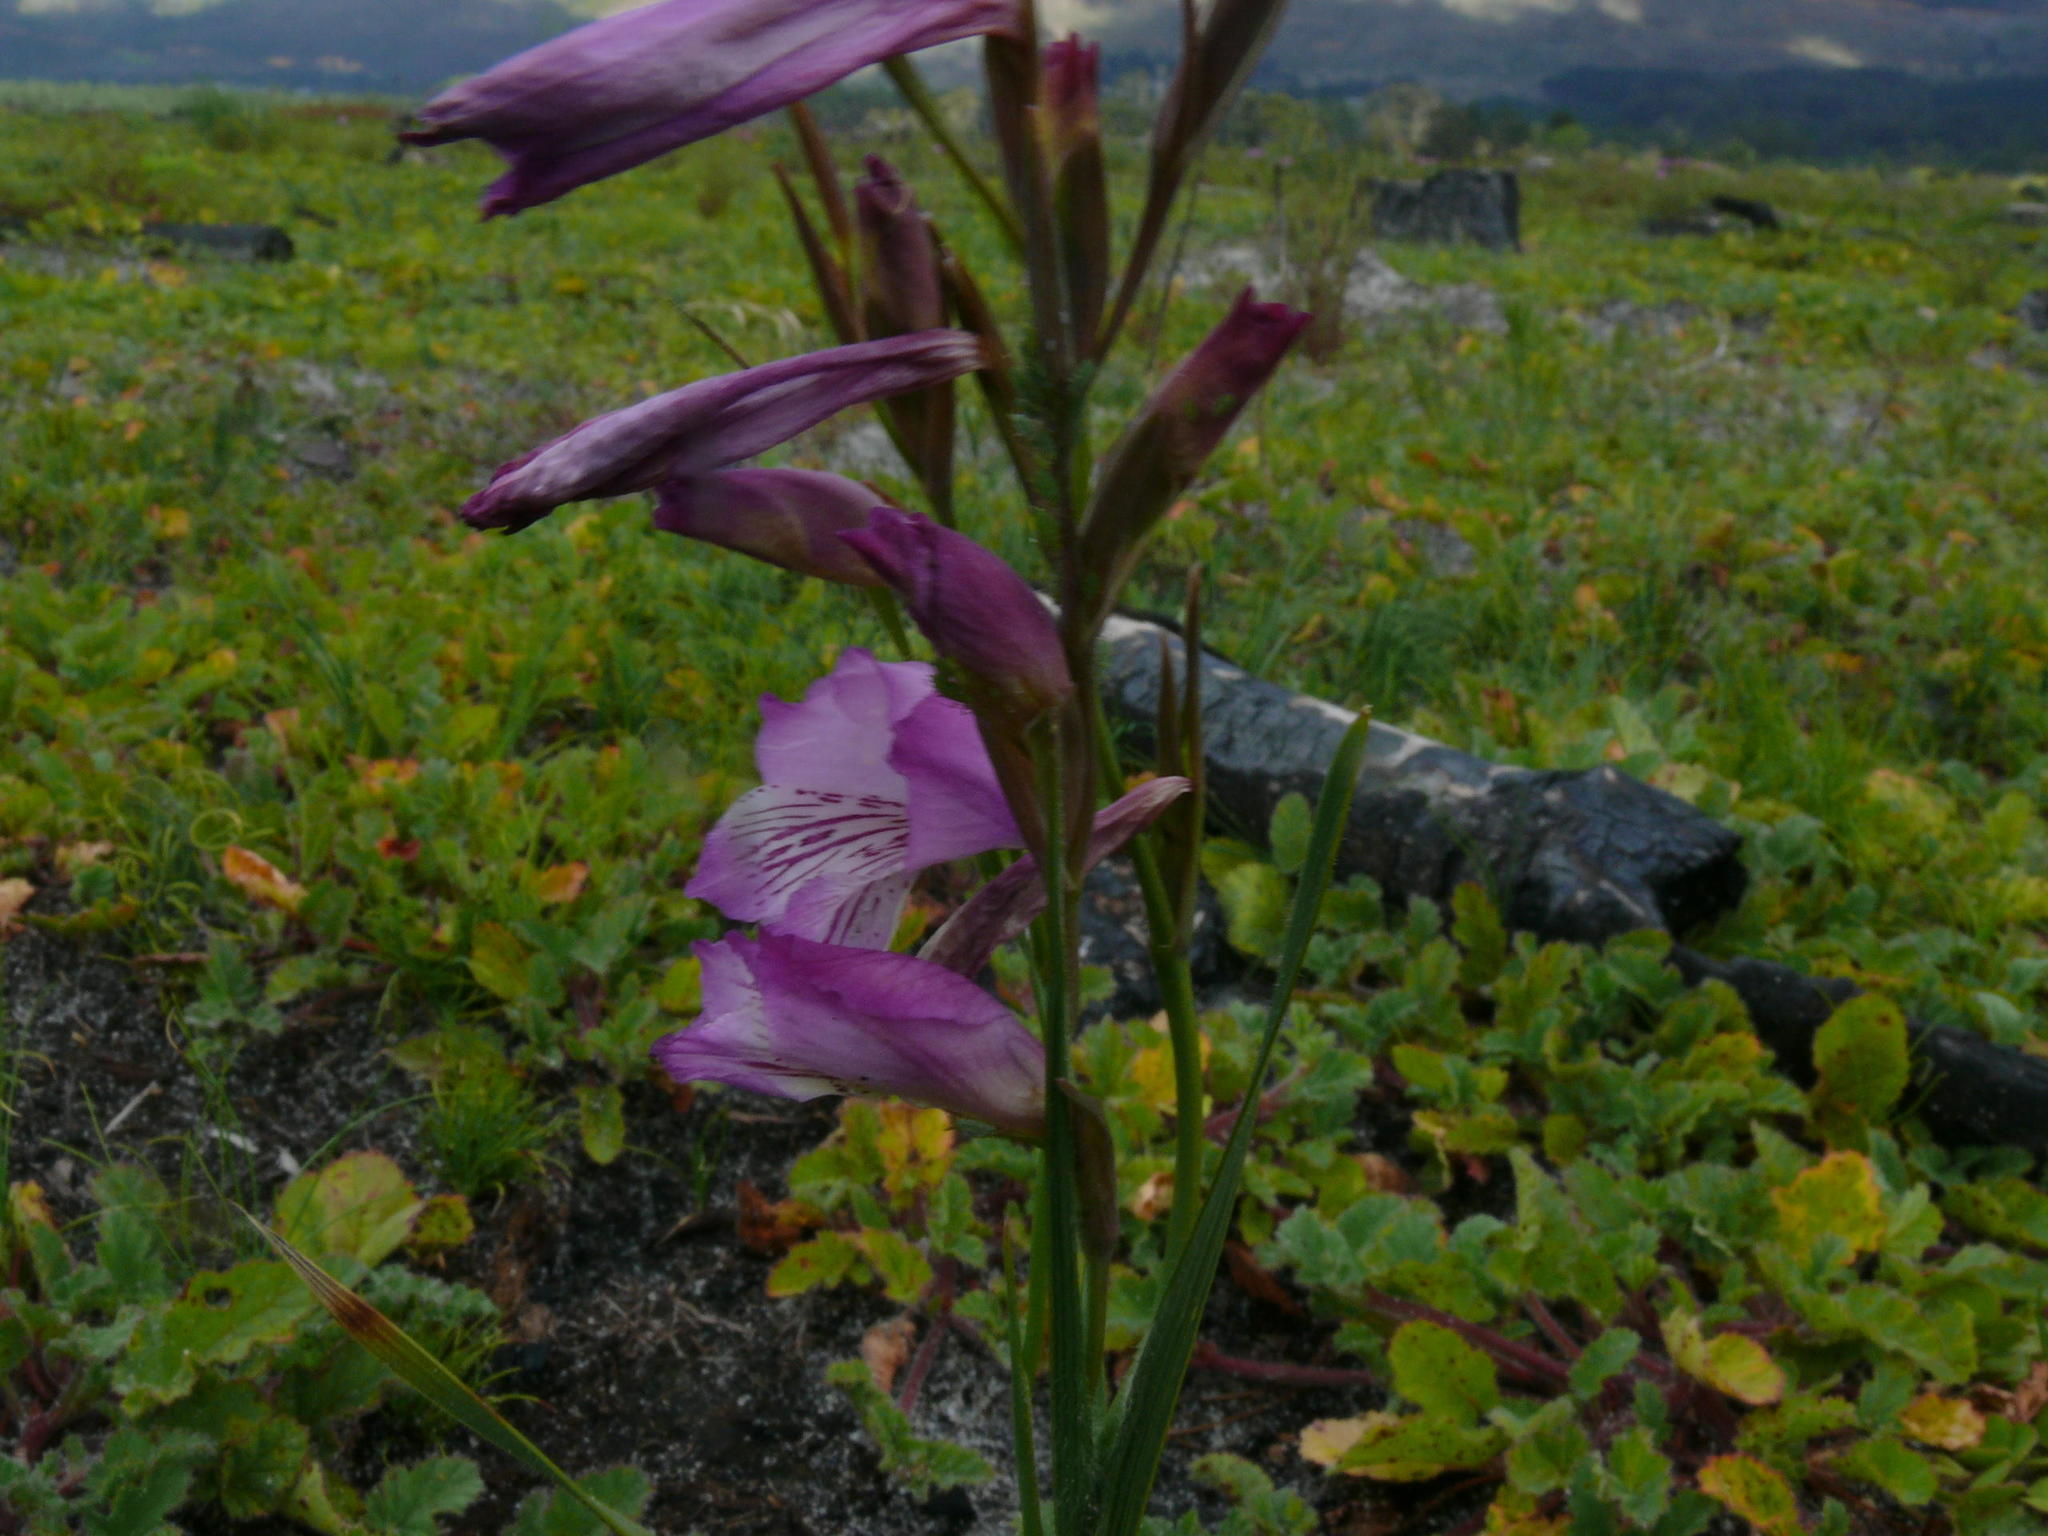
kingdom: Plantae
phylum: Tracheophyta
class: Liliopsida
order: Asparagales
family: Iridaceae
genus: Gladiolus
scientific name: Gladiolus hirsutus
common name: Small pink afrikaner
